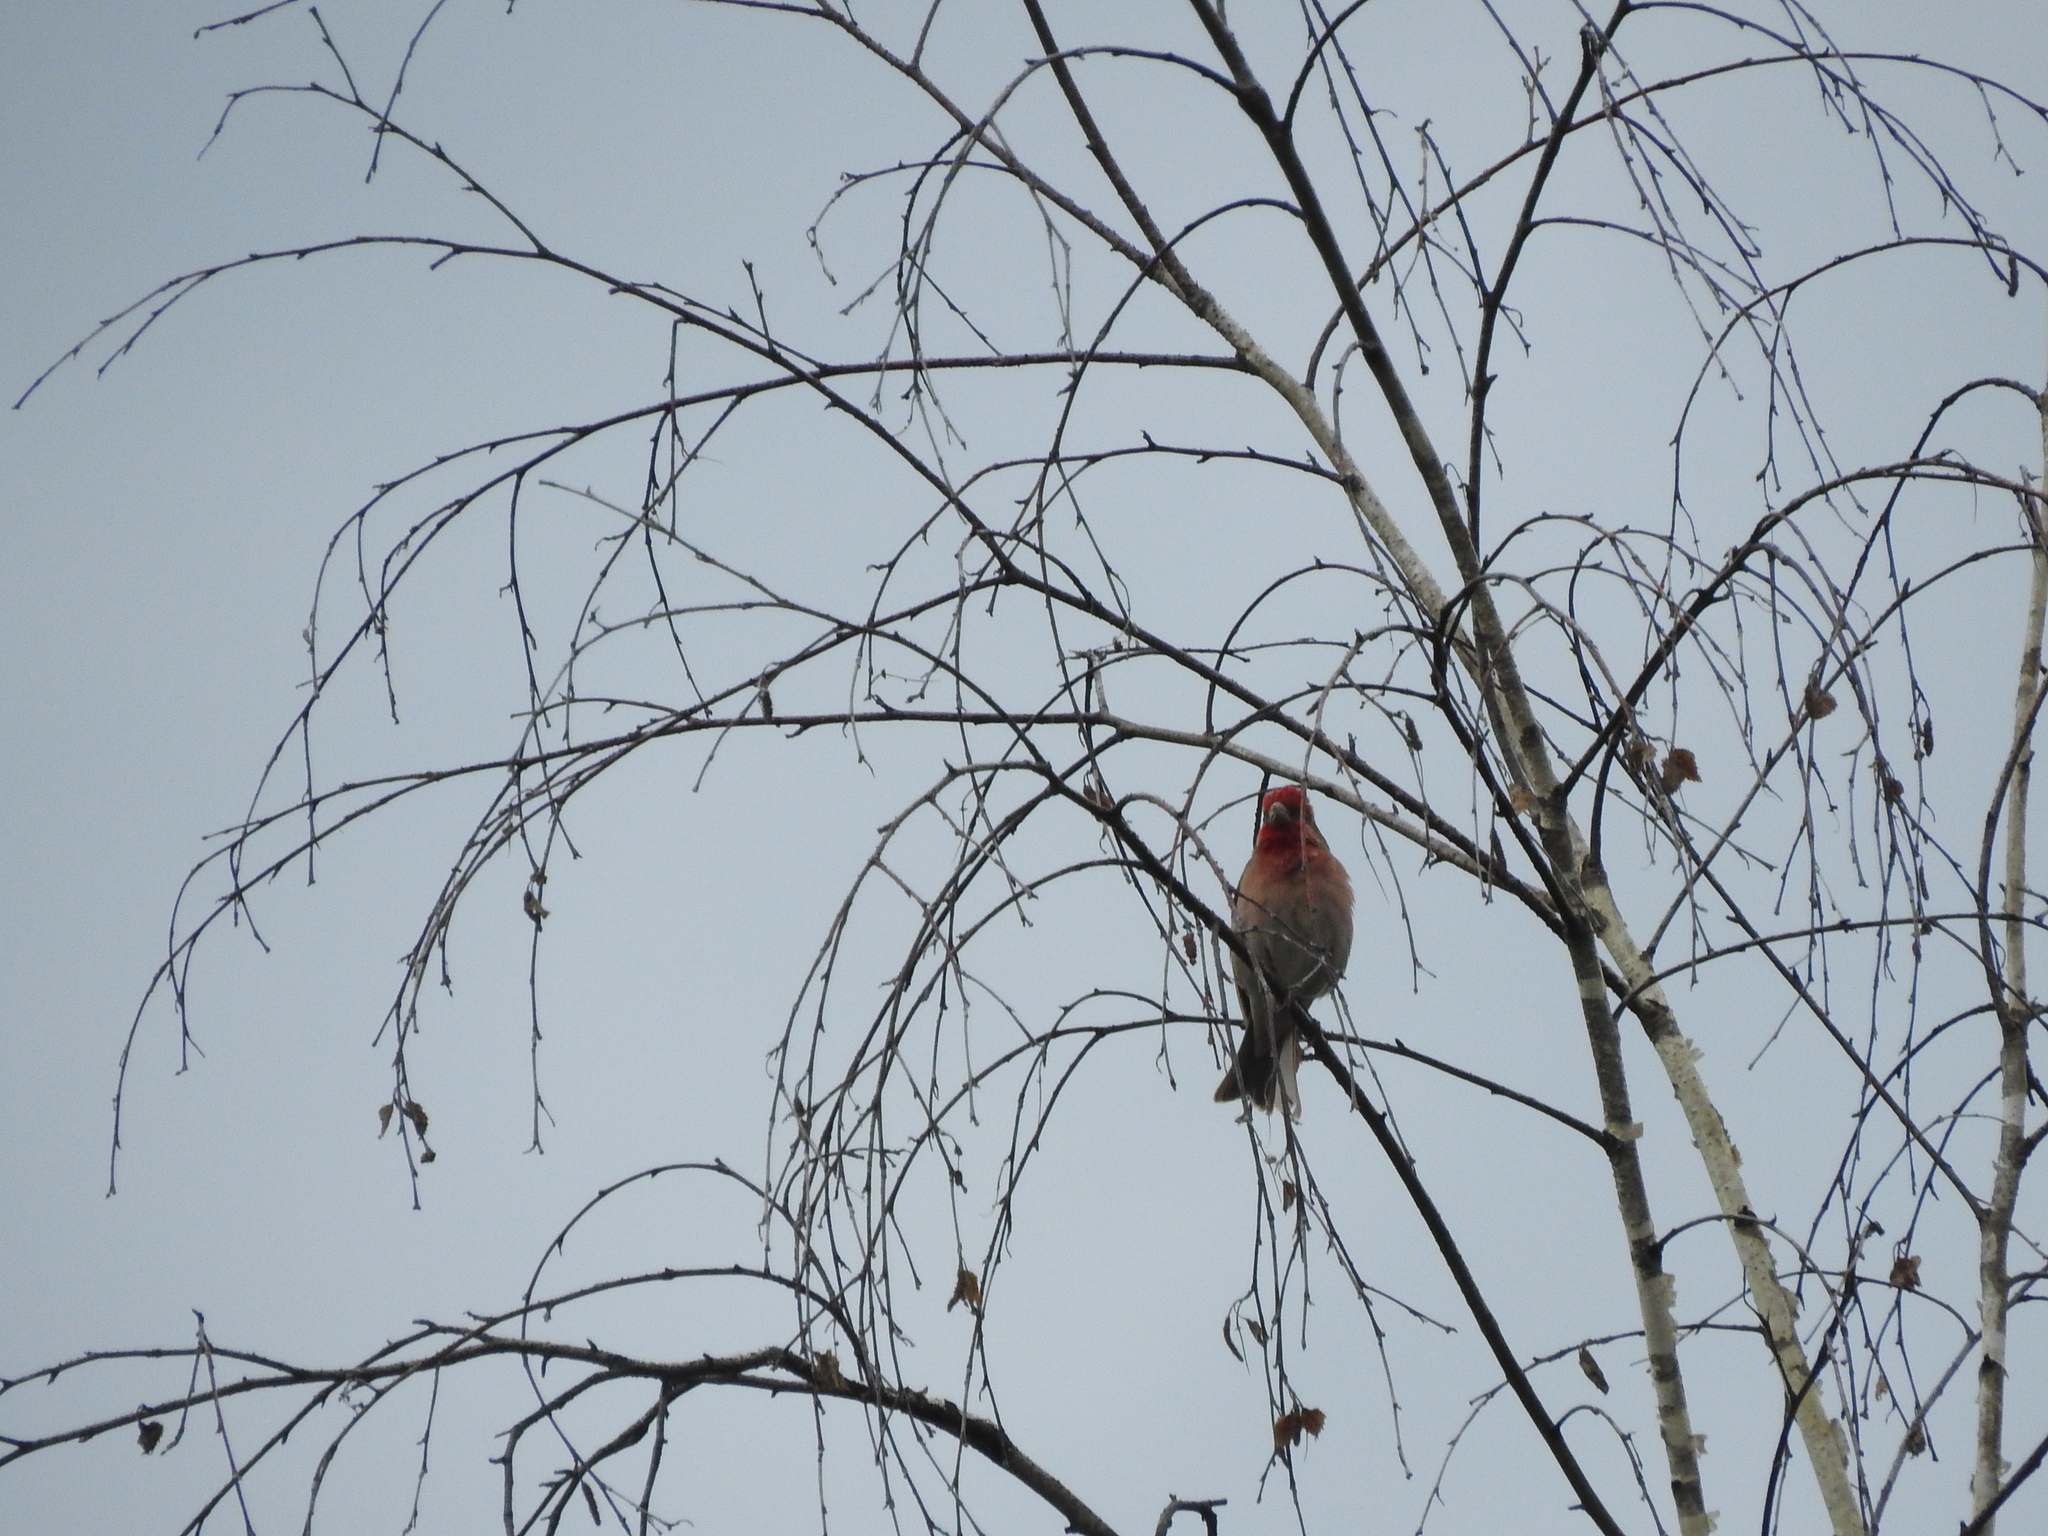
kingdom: Animalia
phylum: Chordata
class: Aves
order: Passeriformes
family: Fringillidae
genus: Carpodacus
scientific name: Carpodacus erythrinus
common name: Common rosefinch
